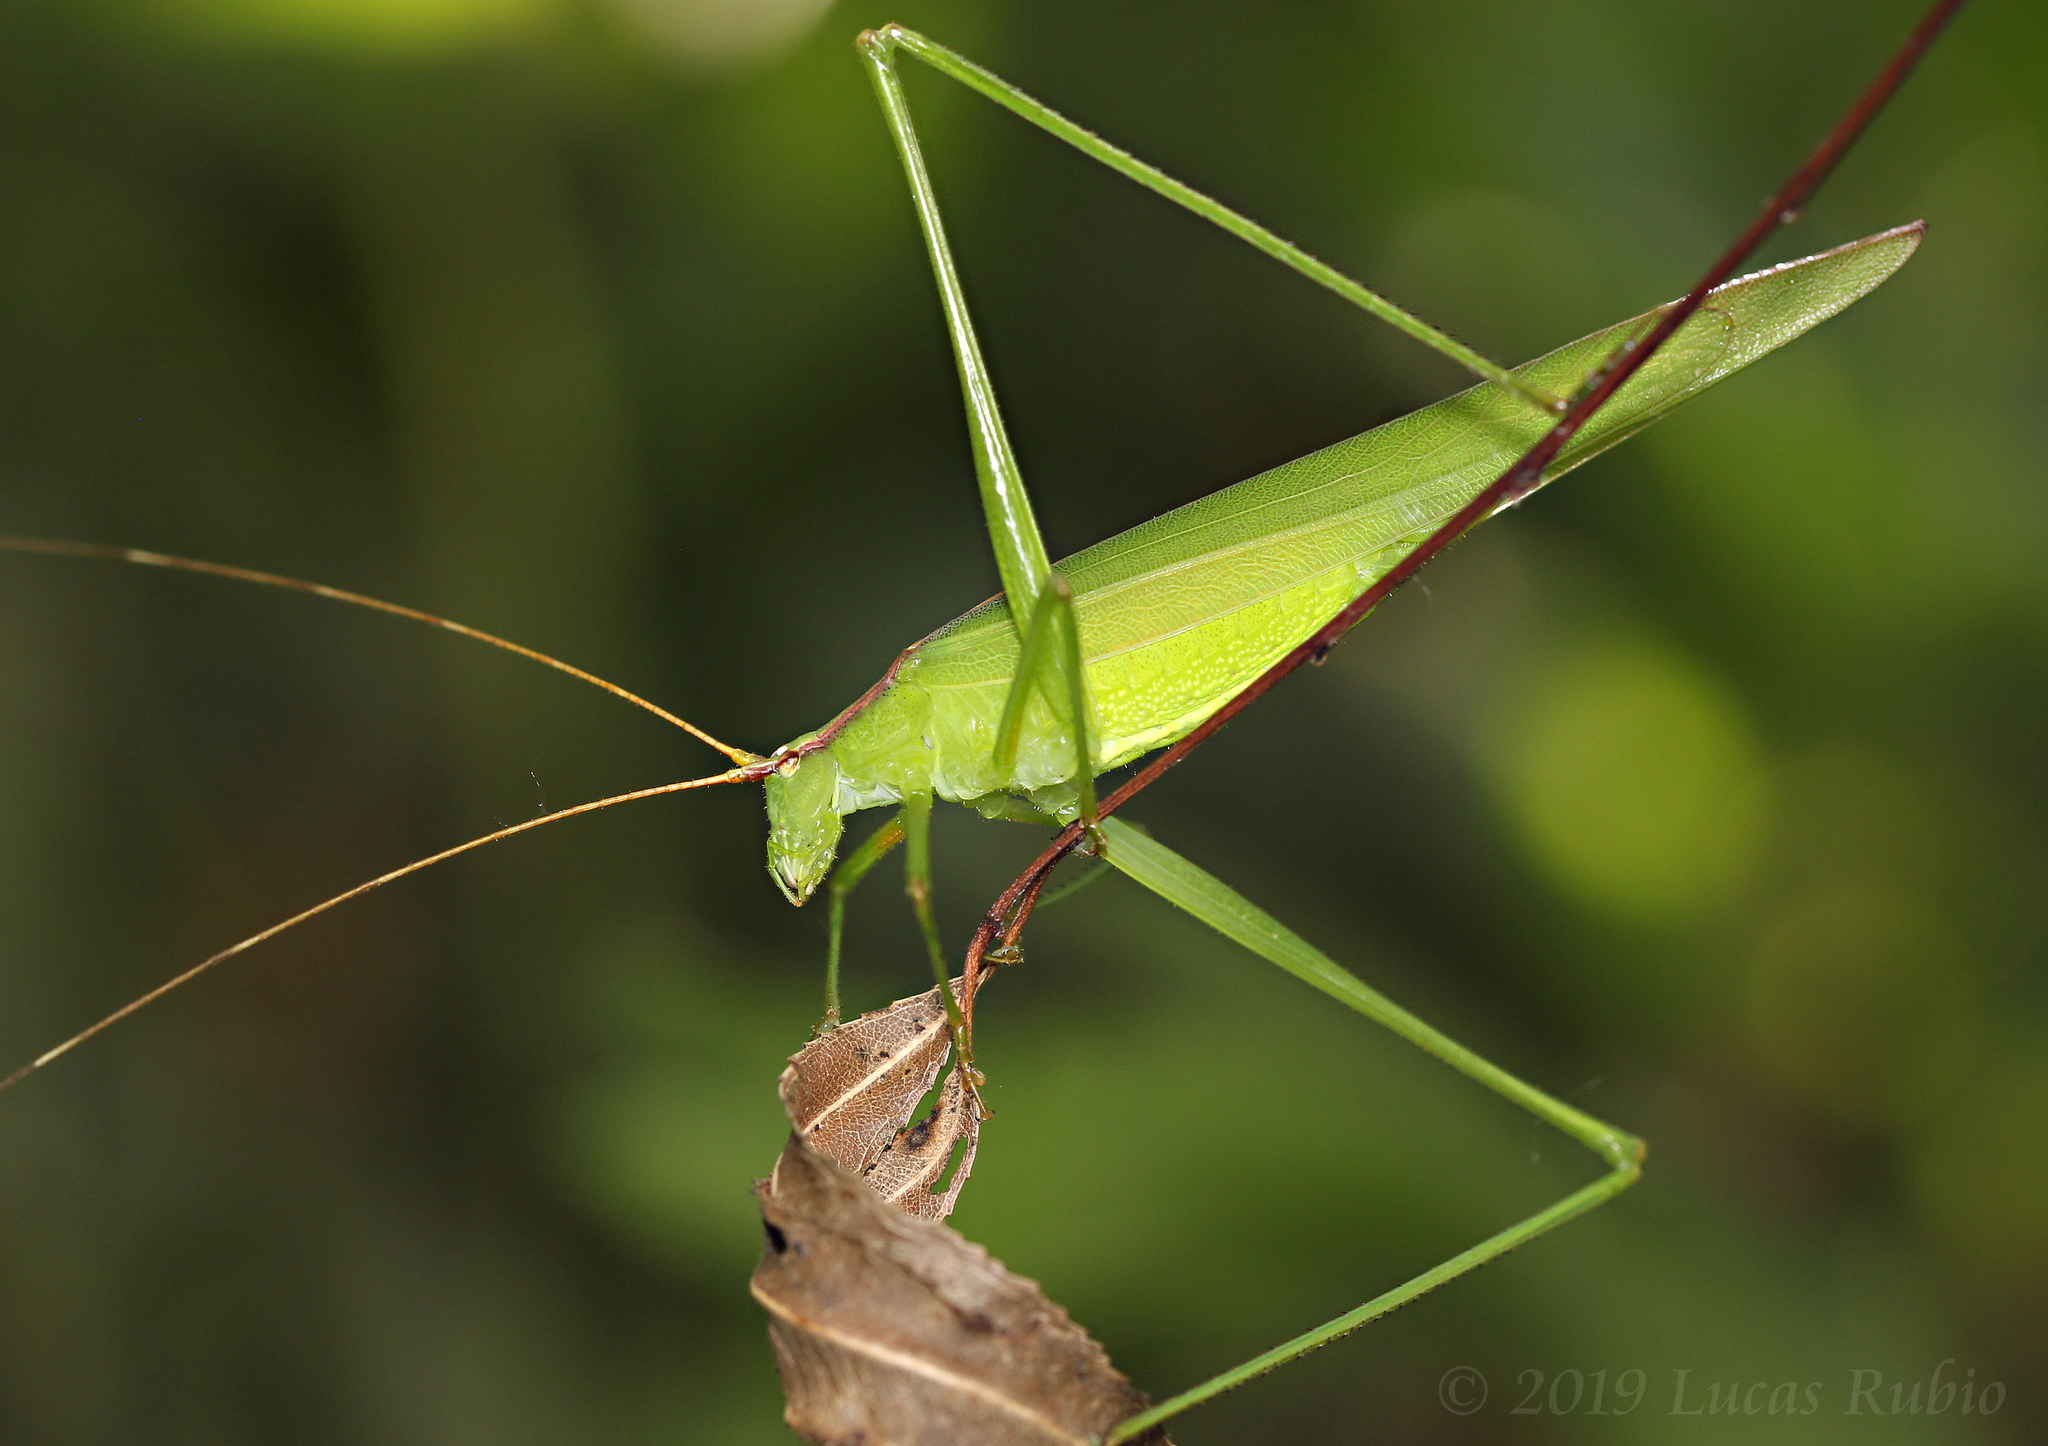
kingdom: Animalia
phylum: Arthropoda
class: Insecta
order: Orthoptera
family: Tettigoniidae
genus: Hyperophora
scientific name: Hyperophora major
